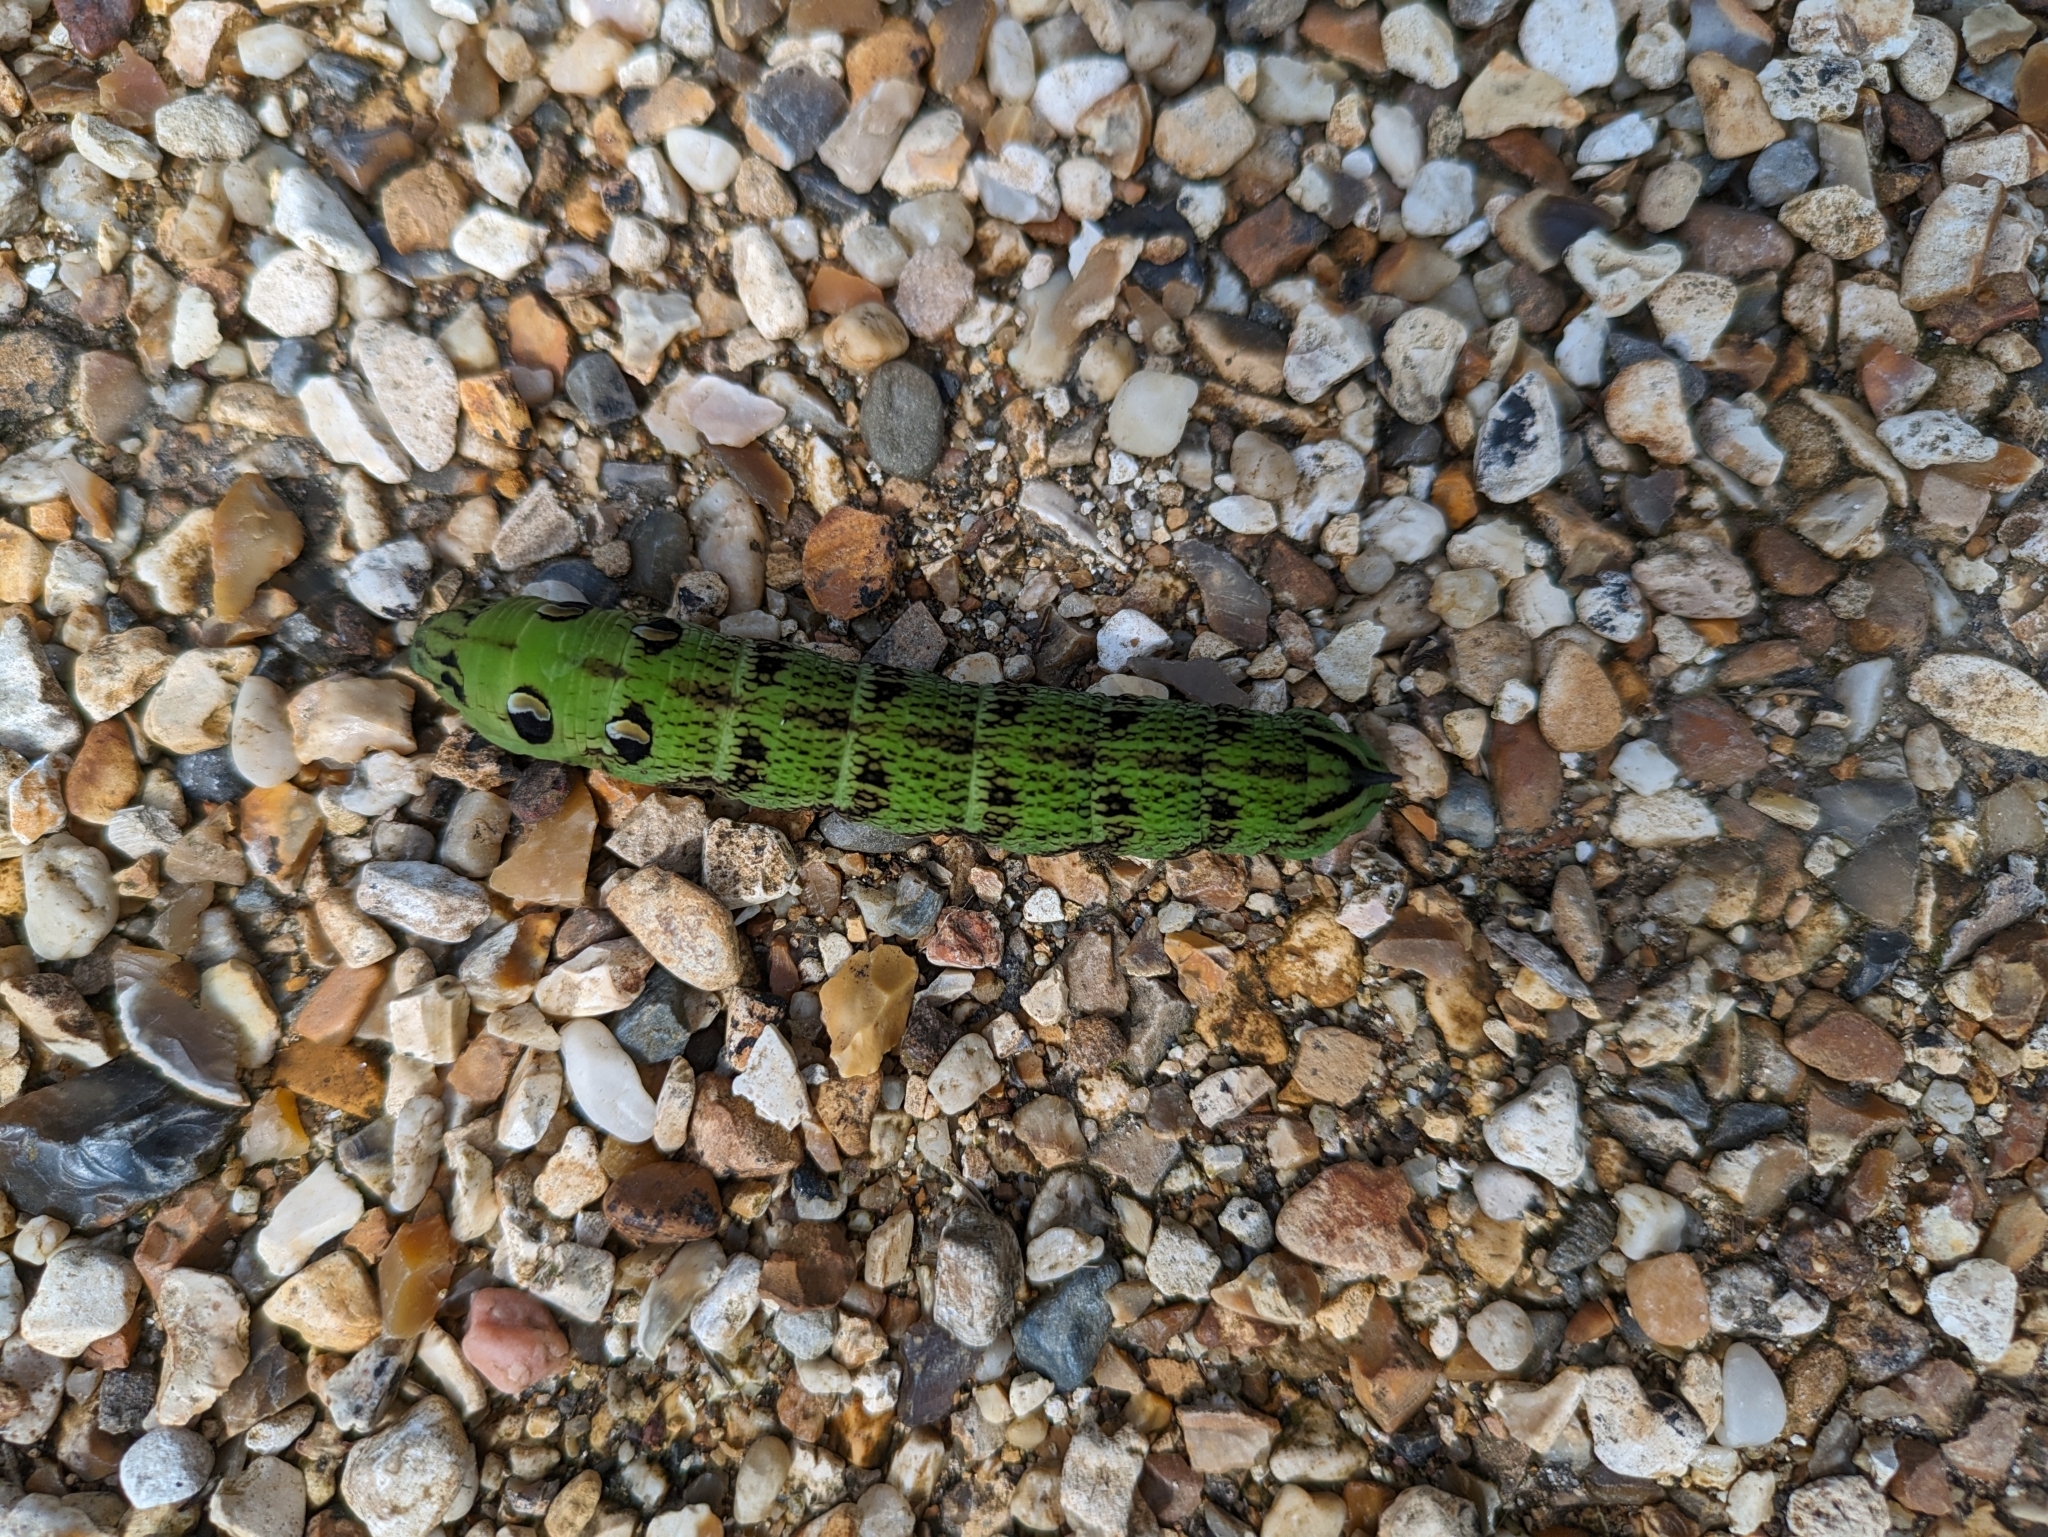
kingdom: Animalia
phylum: Arthropoda
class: Insecta
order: Lepidoptera
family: Sphingidae
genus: Deilephila
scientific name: Deilephila elpenor
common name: Elephant hawk-moth
